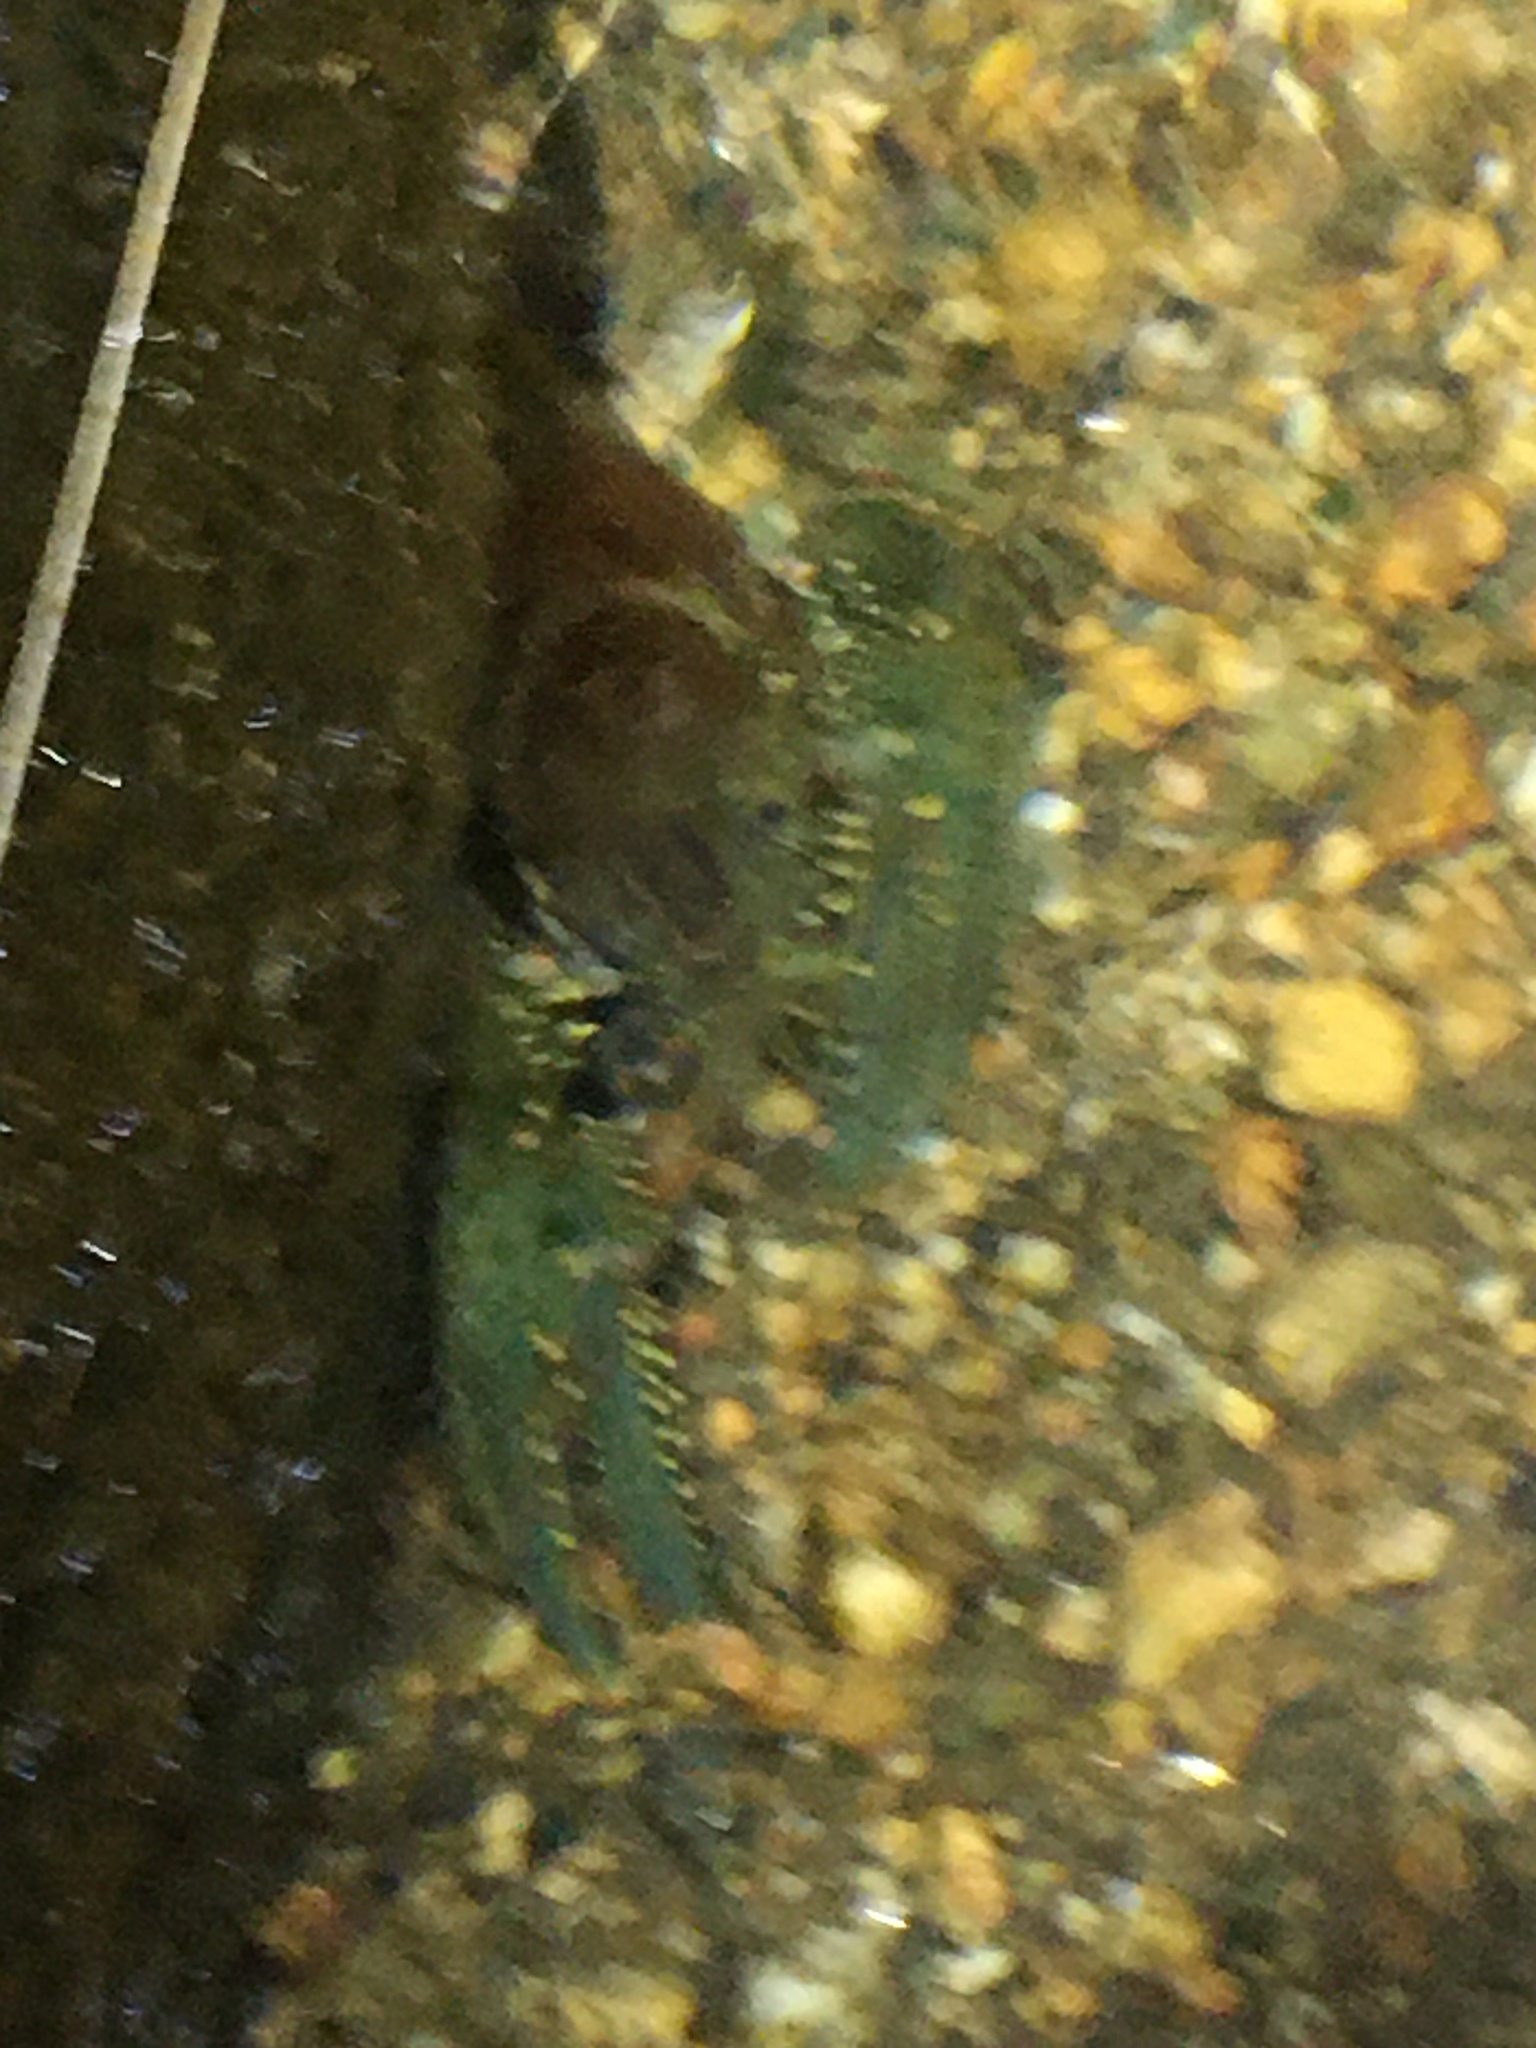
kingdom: Animalia
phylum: Arthropoda
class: Malacostraca
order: Decapoda
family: Cambaridae
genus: Faxonius
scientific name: Faxonius virilis
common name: Virile crayfish
